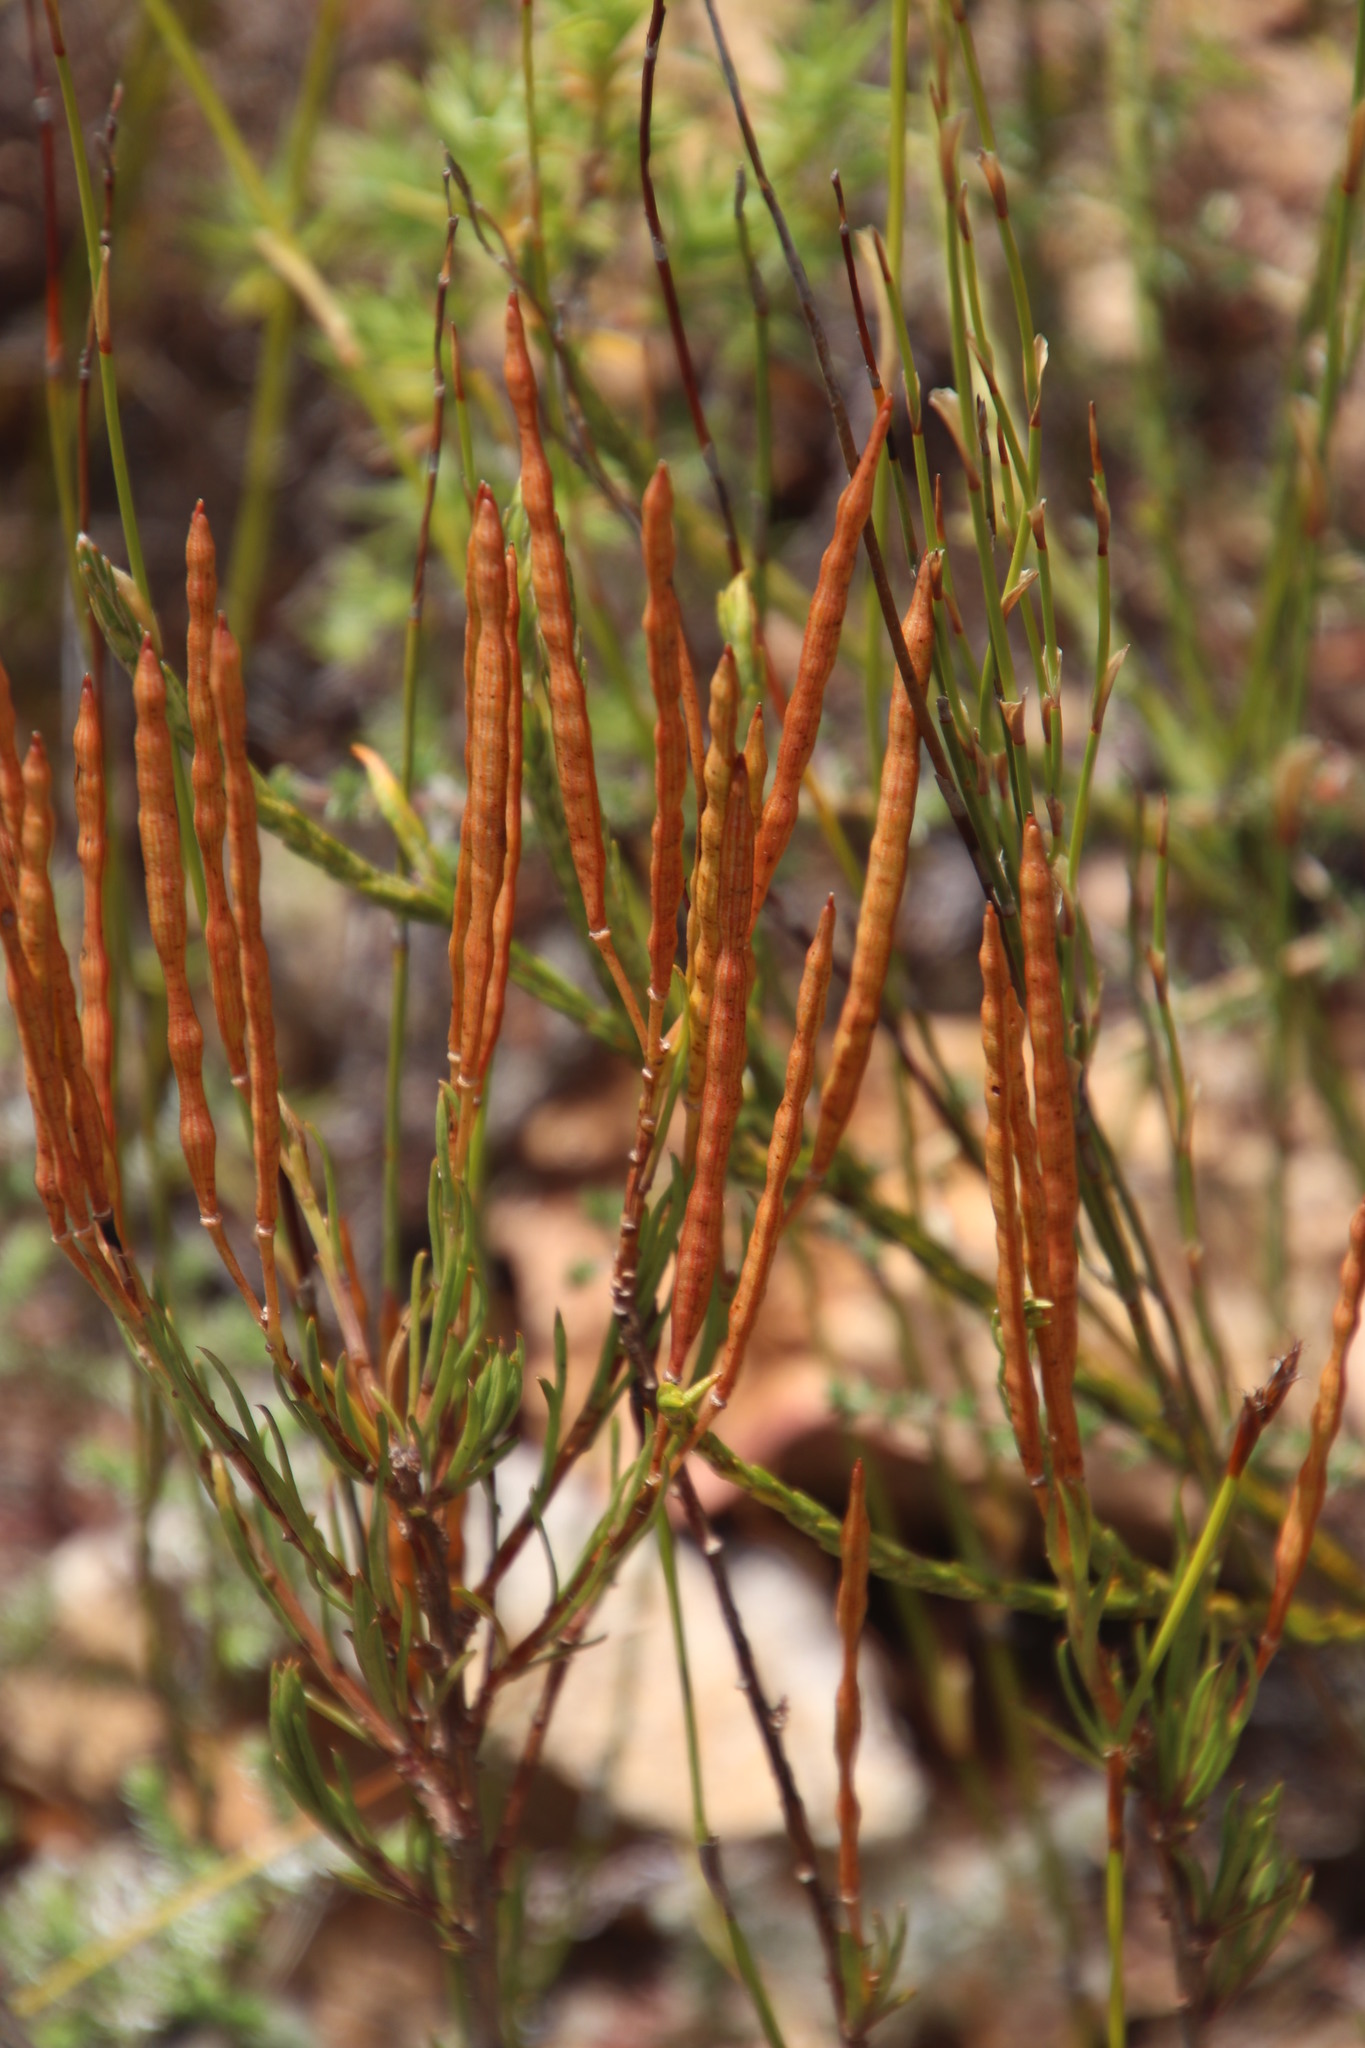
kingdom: Plantae
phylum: Tracheophyta
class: Magnoliopsida
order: Brassicales
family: Brassicaceae
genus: Heliophila
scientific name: Heliophila scoparia
